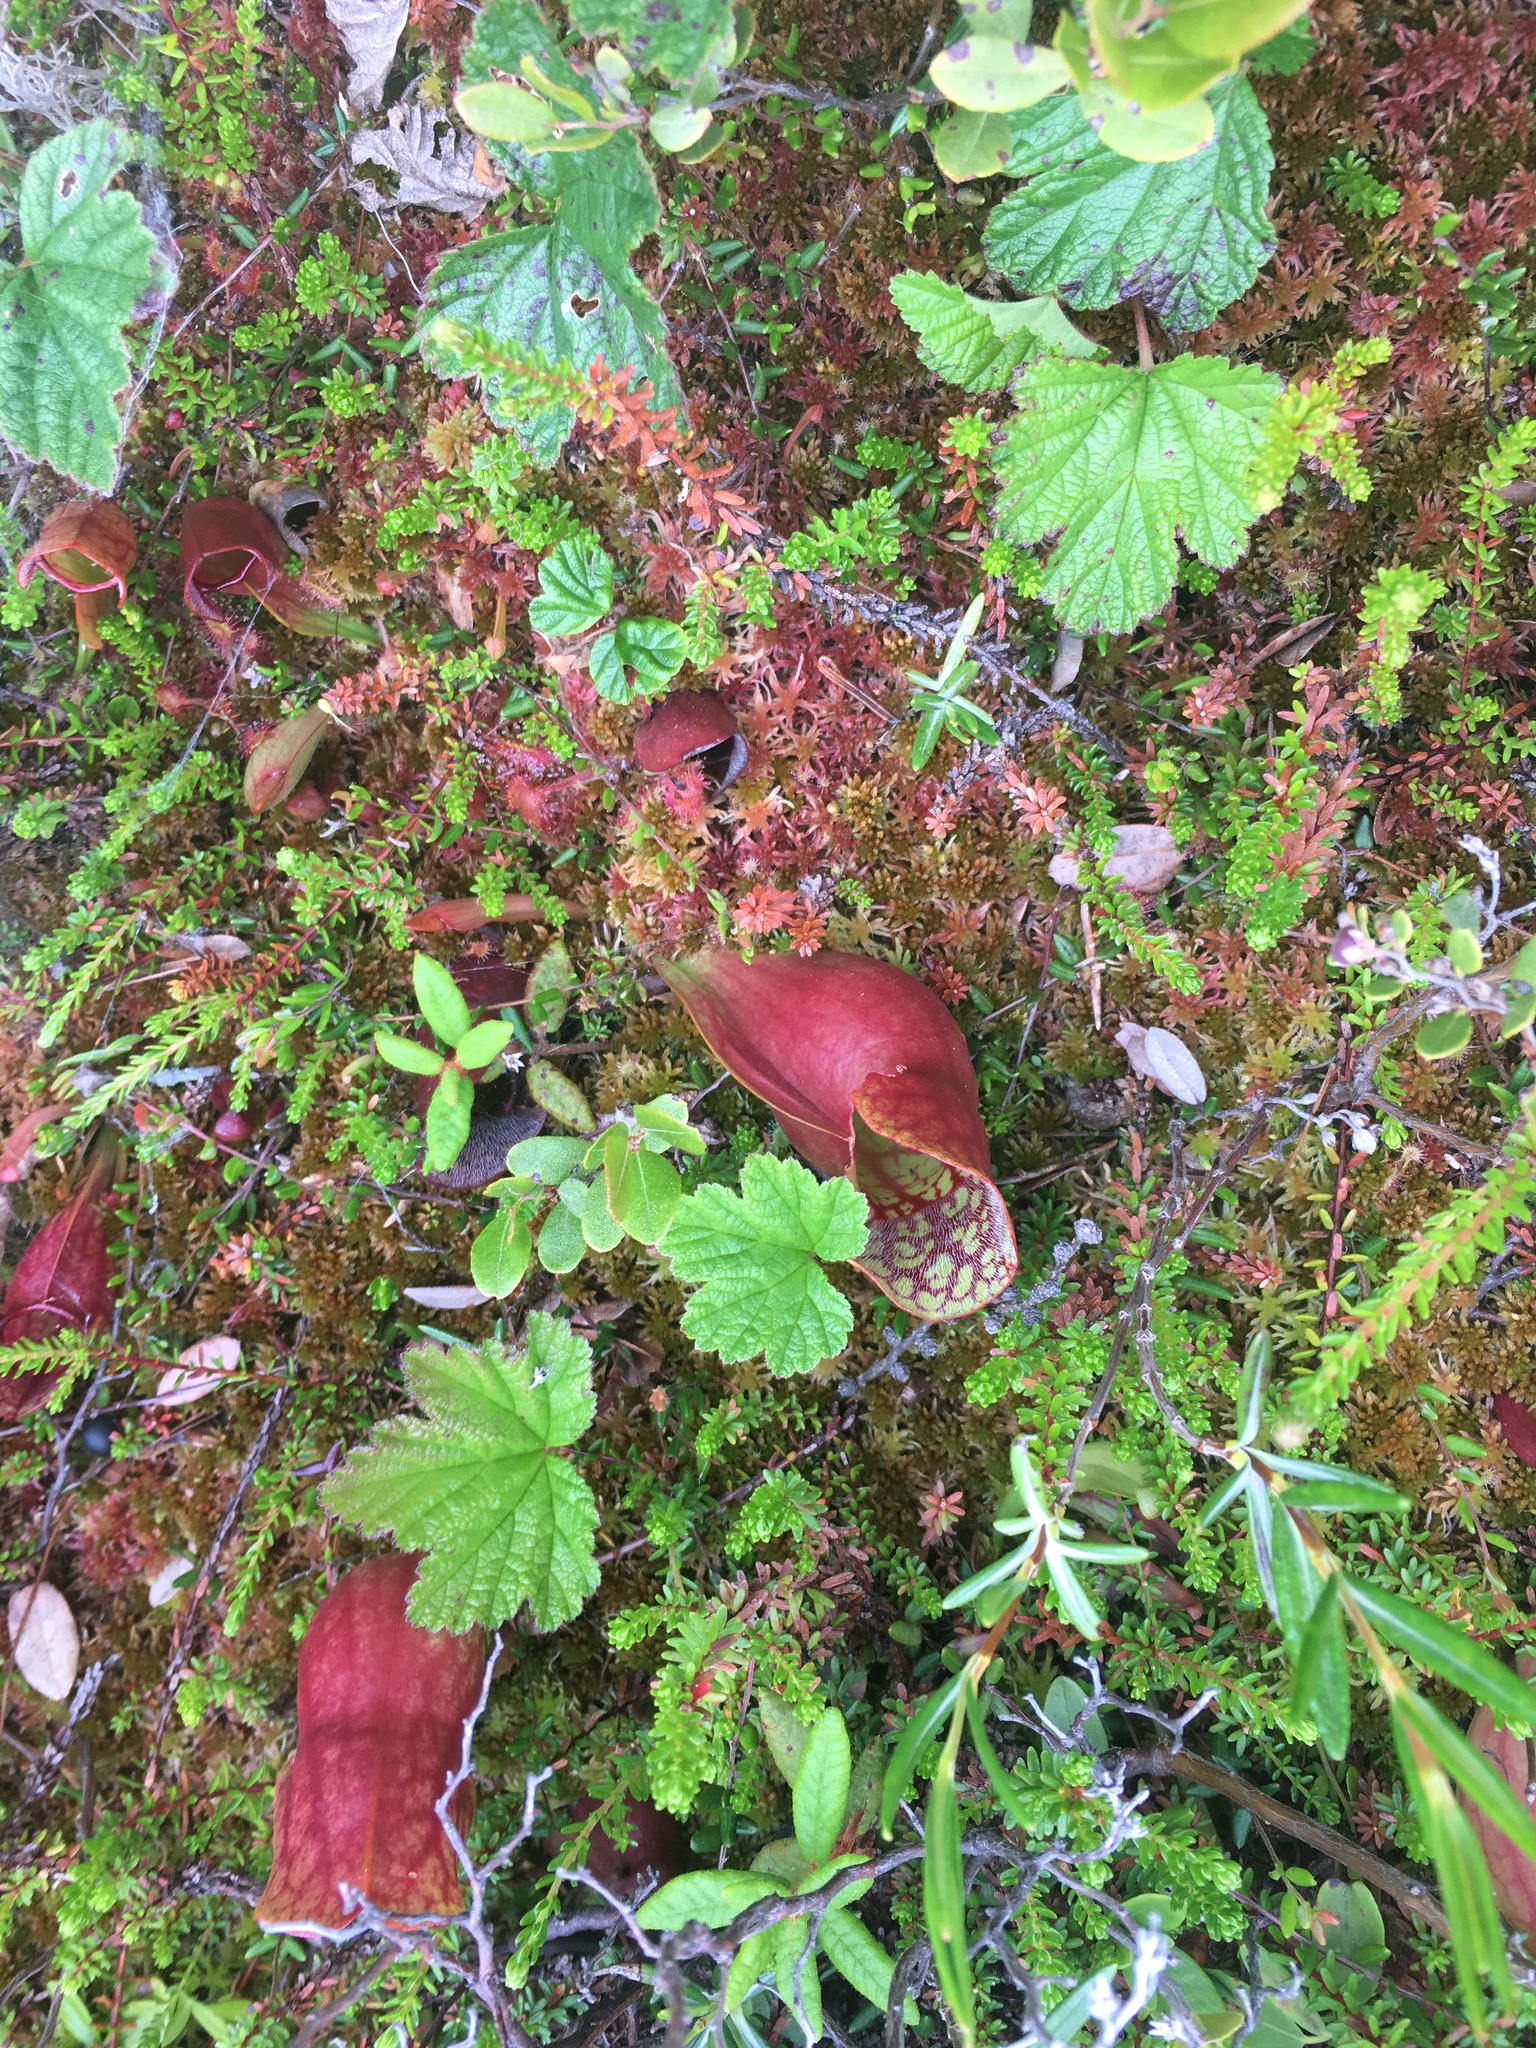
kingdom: Plantae
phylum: Tracheophyta
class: Magnoliopsida
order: Ericales
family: Sarraceniaceae
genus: Sarracenia
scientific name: Sarracenia purpurea
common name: Pitcherplant
